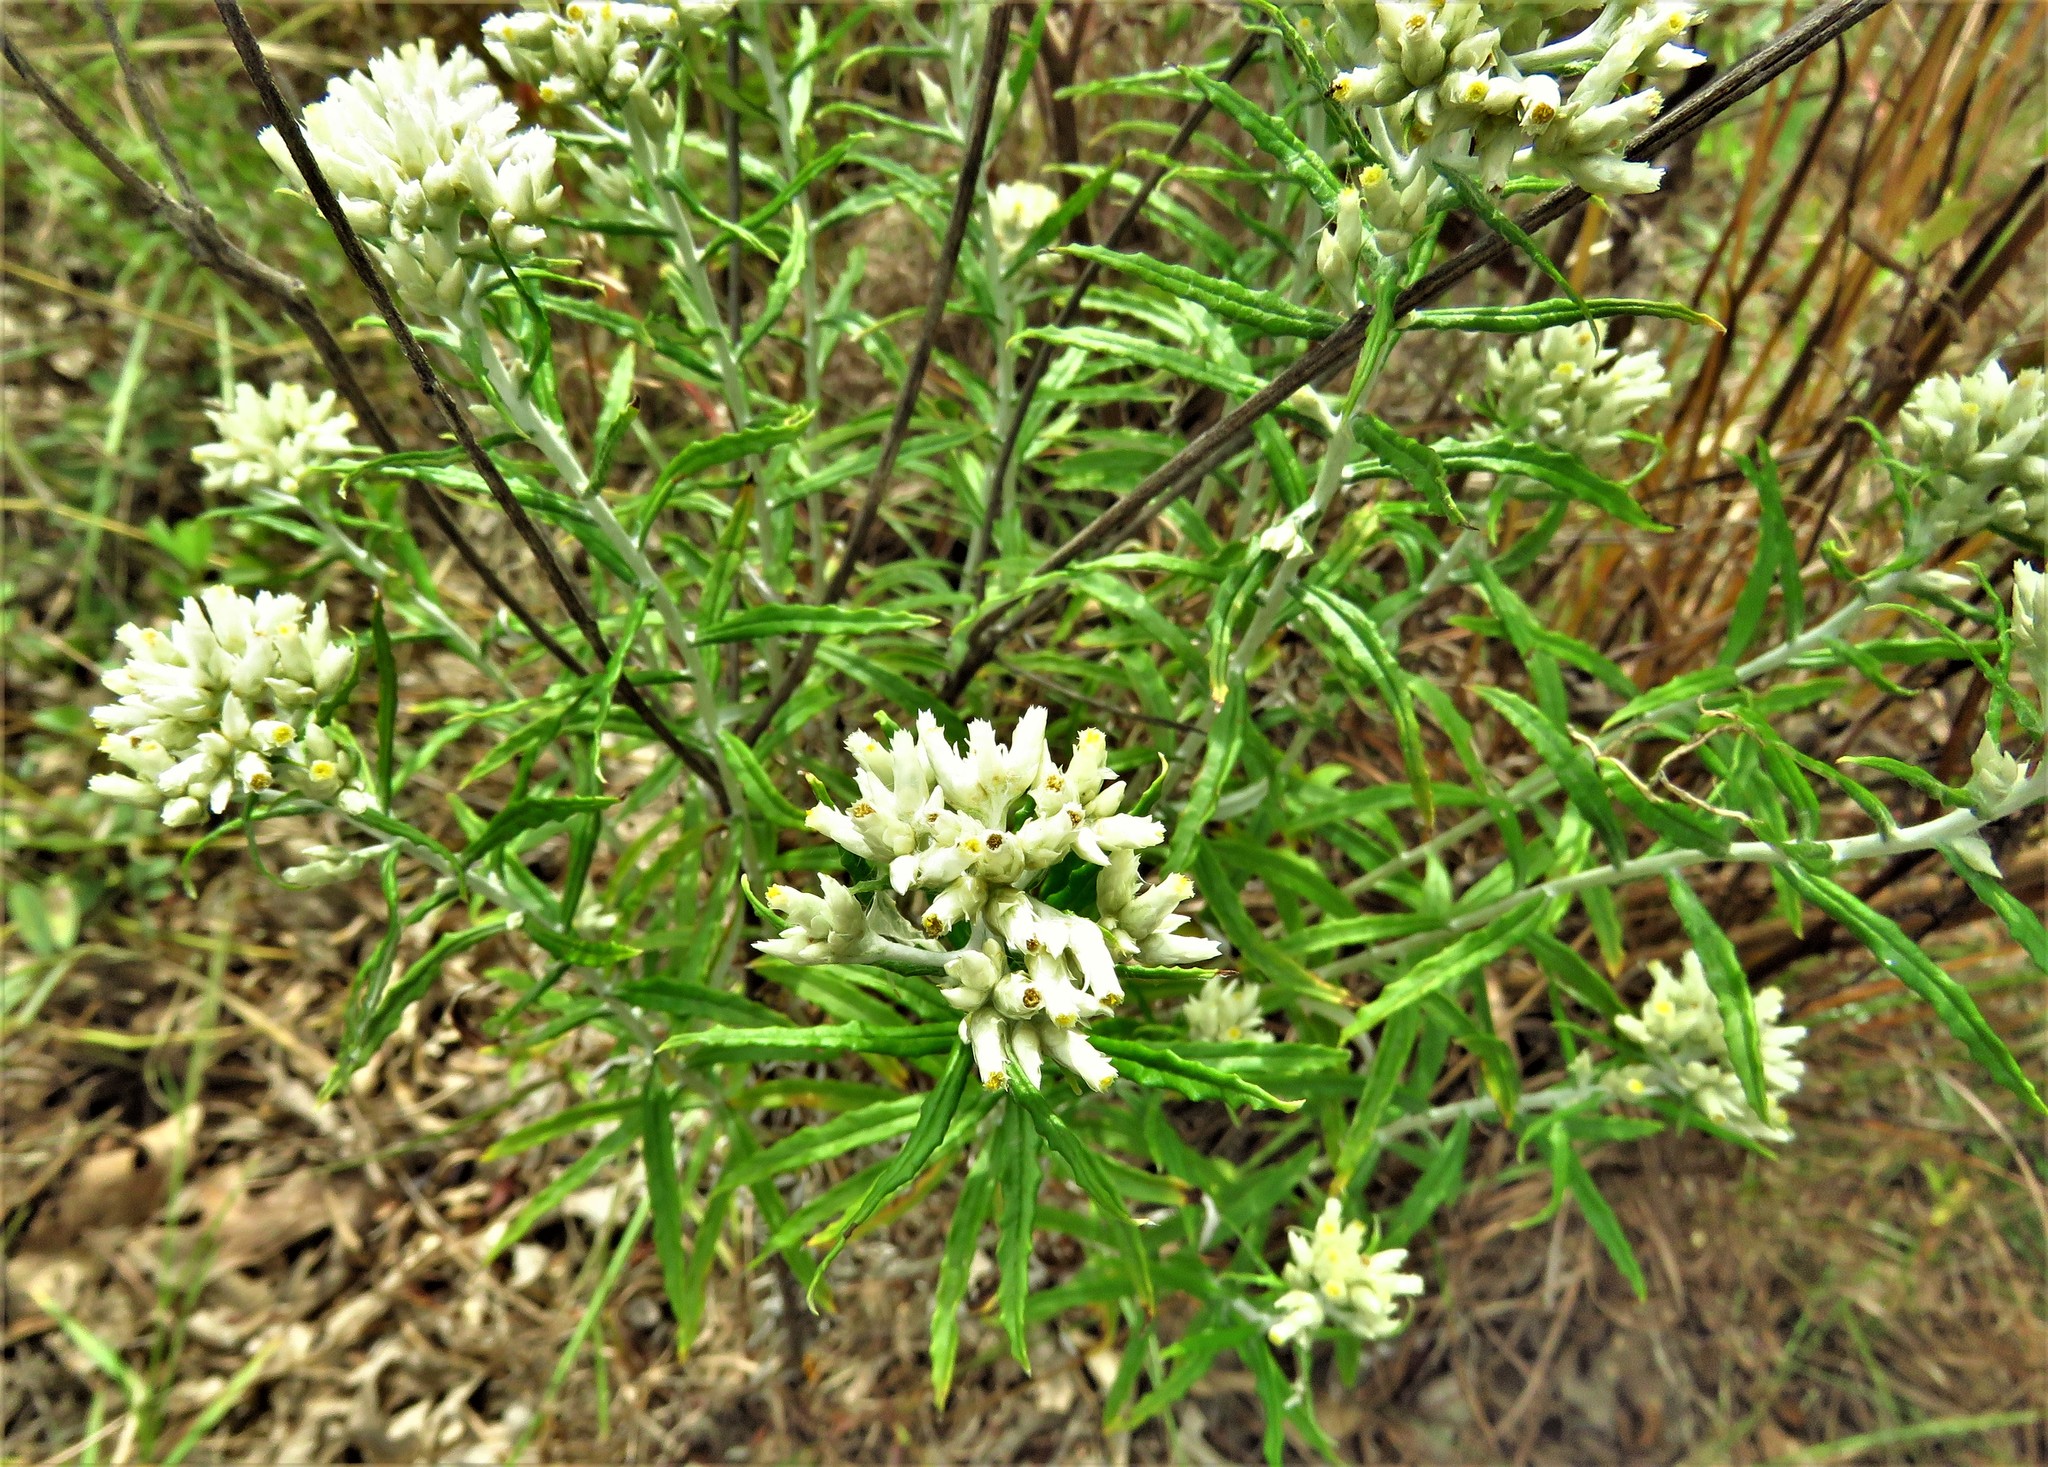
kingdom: Plantae
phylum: Tracheophyta
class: Magnoliopsida
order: Asterales
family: Asteraceae
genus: Pseudognaphalium
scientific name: Pseudognaphalium obtusifolium
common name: Eastern rabbit-tobacco
